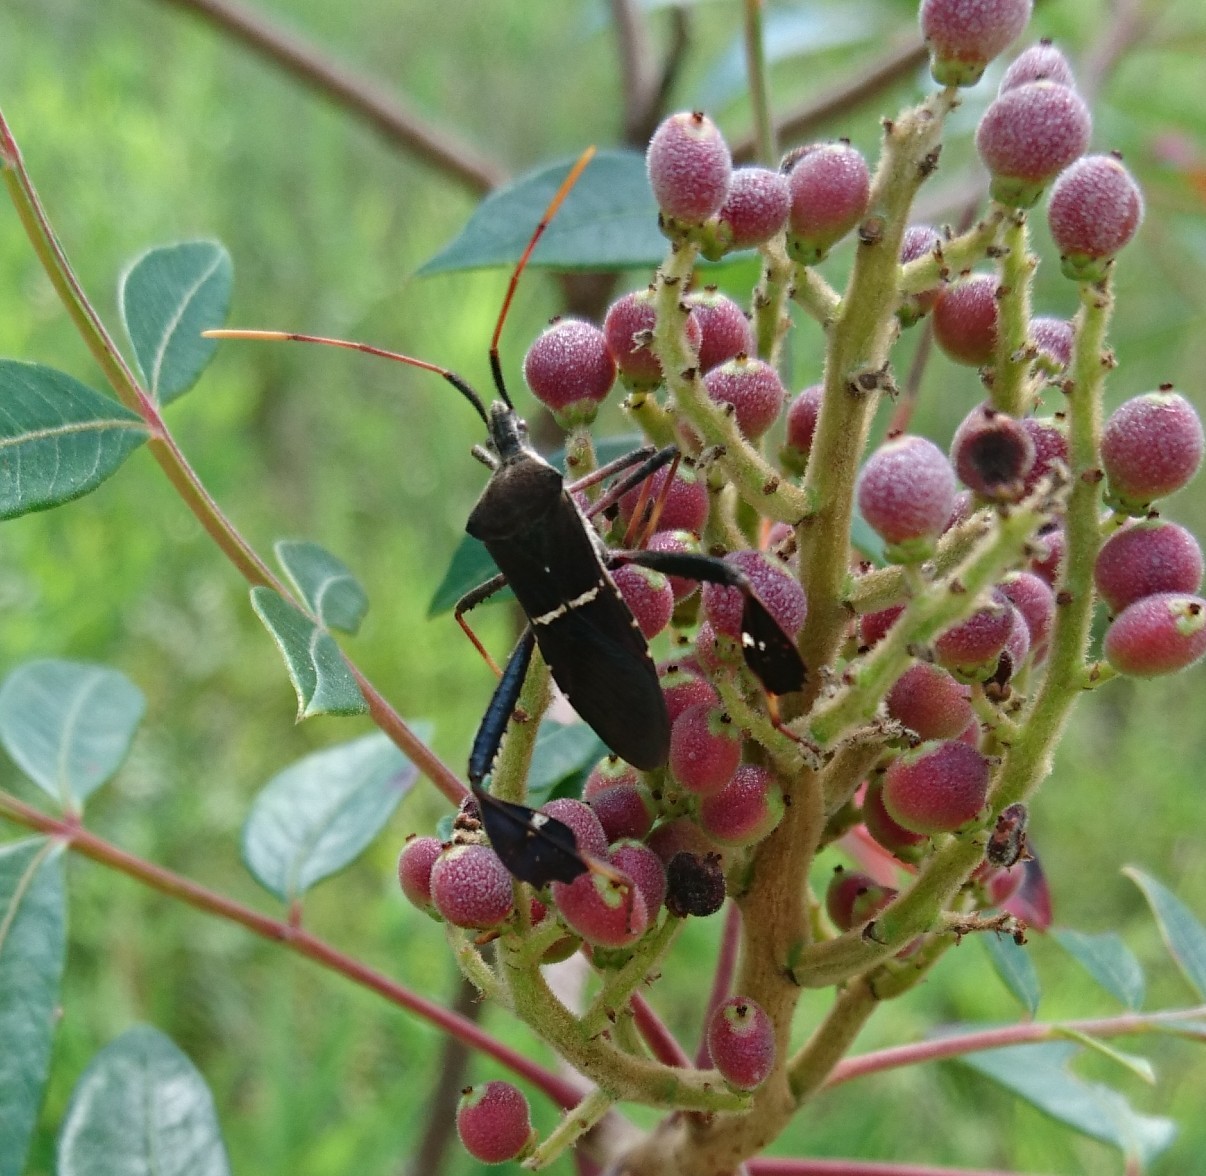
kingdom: Animalia
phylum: Arthropoda
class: Insecta
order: Hemiptera
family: Coreidae
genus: Leptoglossus
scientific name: Leptoglossus phyllopus
